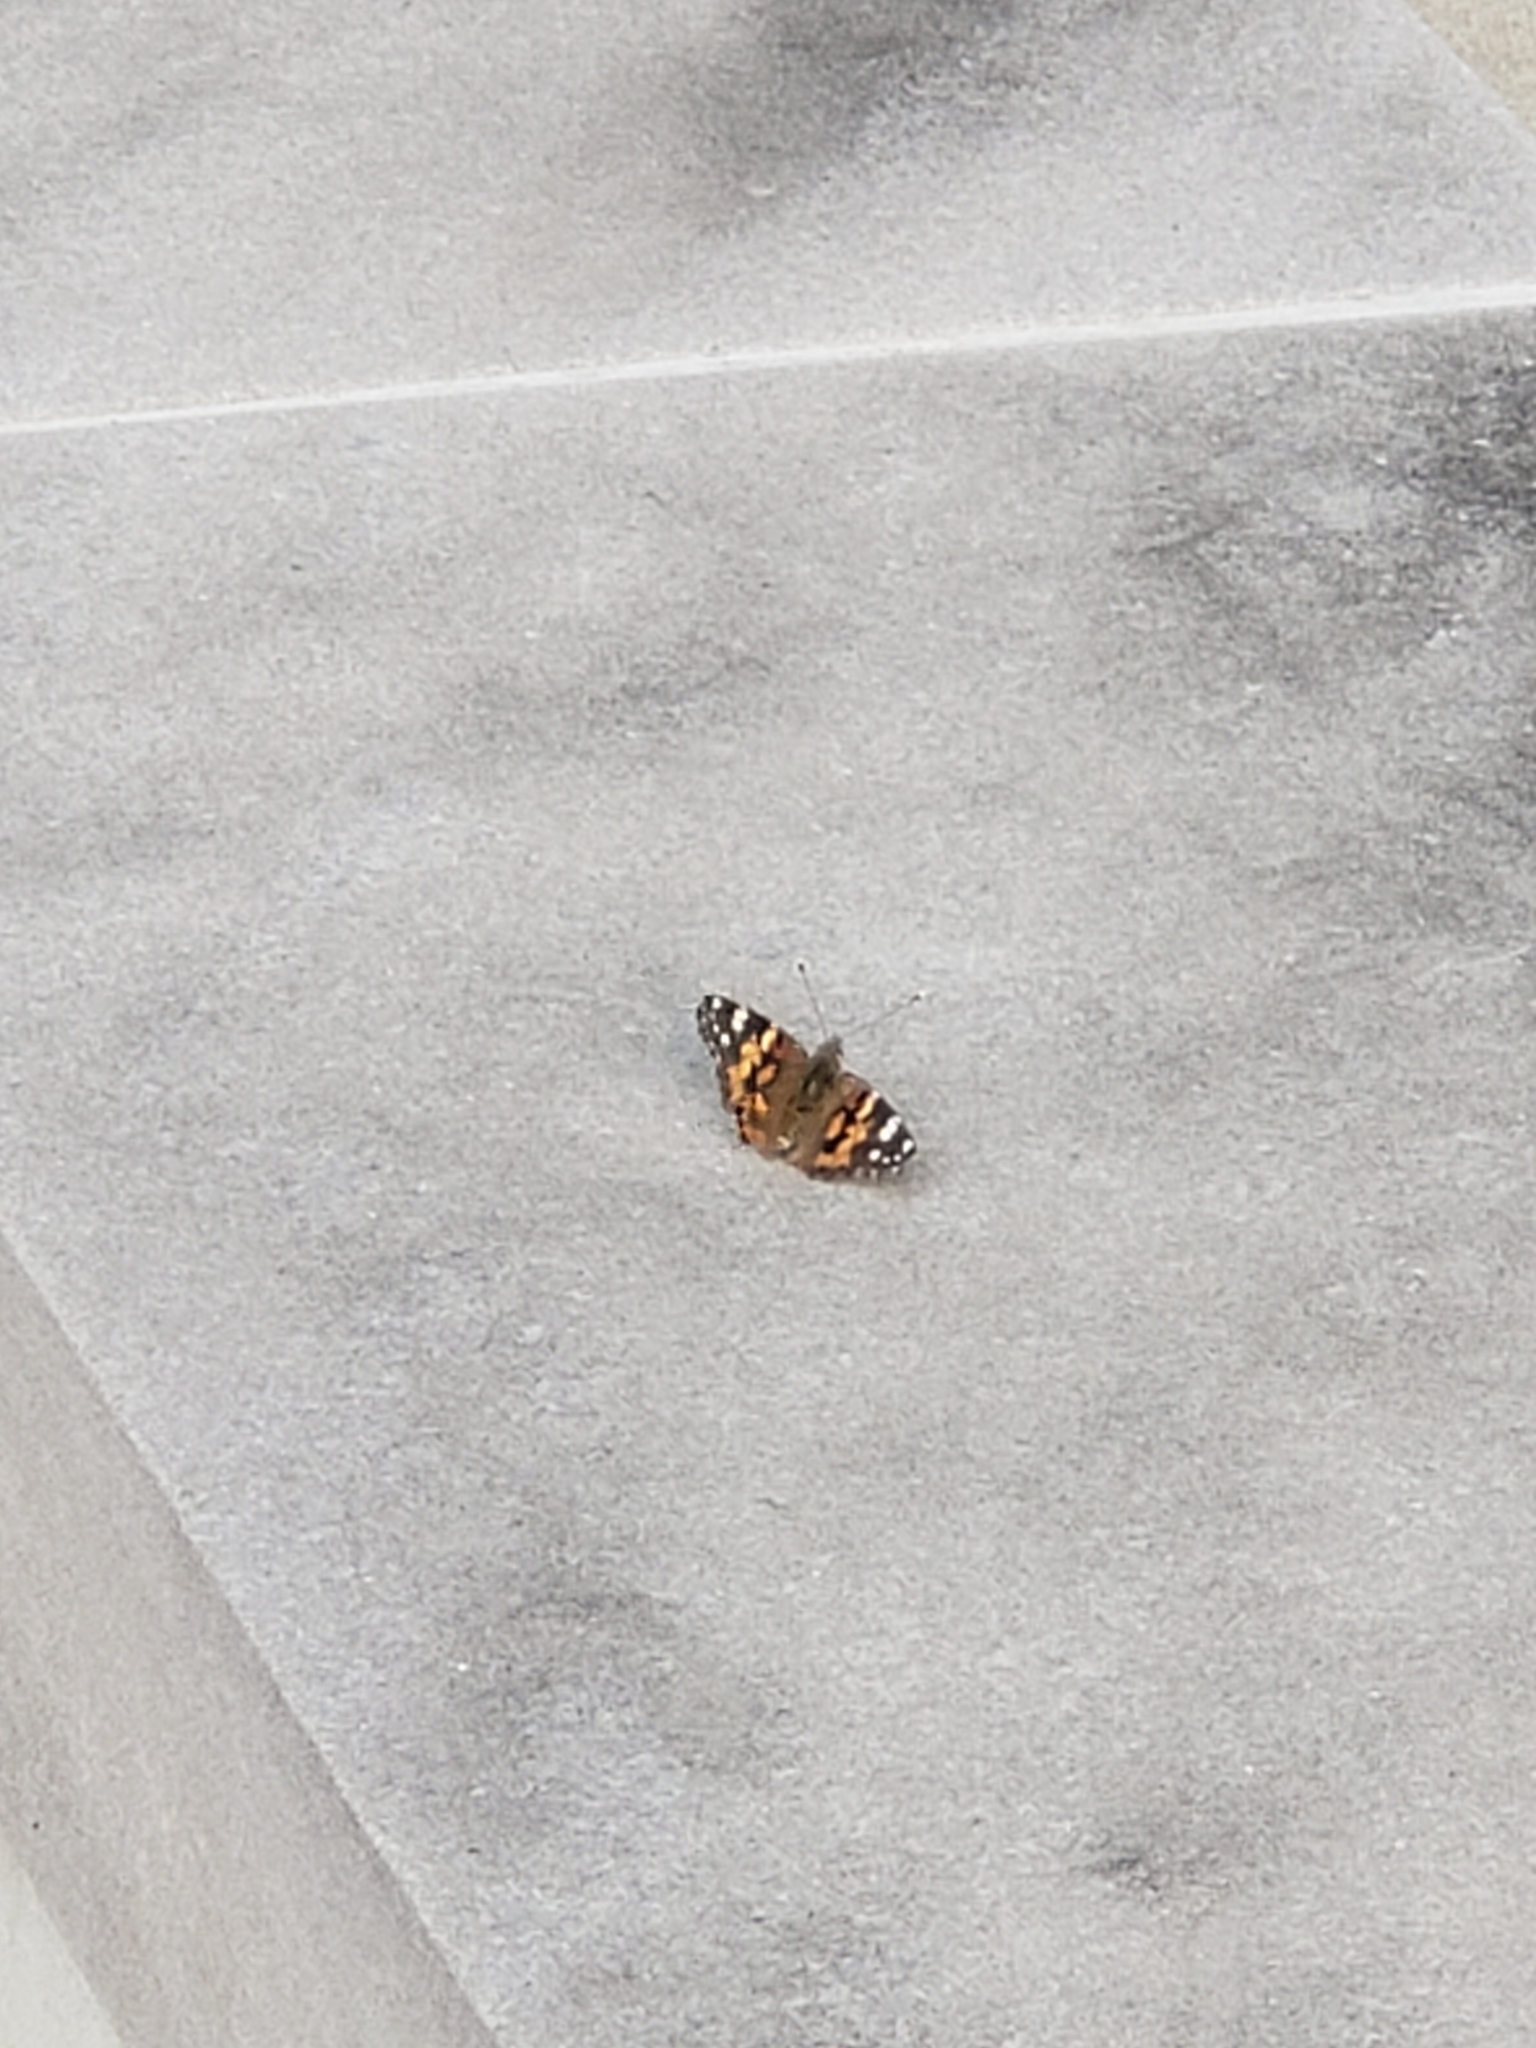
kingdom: Animalia
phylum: Arthropoda
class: Insecta
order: Lepidoptera
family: Nymphalidae
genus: Vanessa
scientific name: Vanessa cardui
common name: Painted lady
